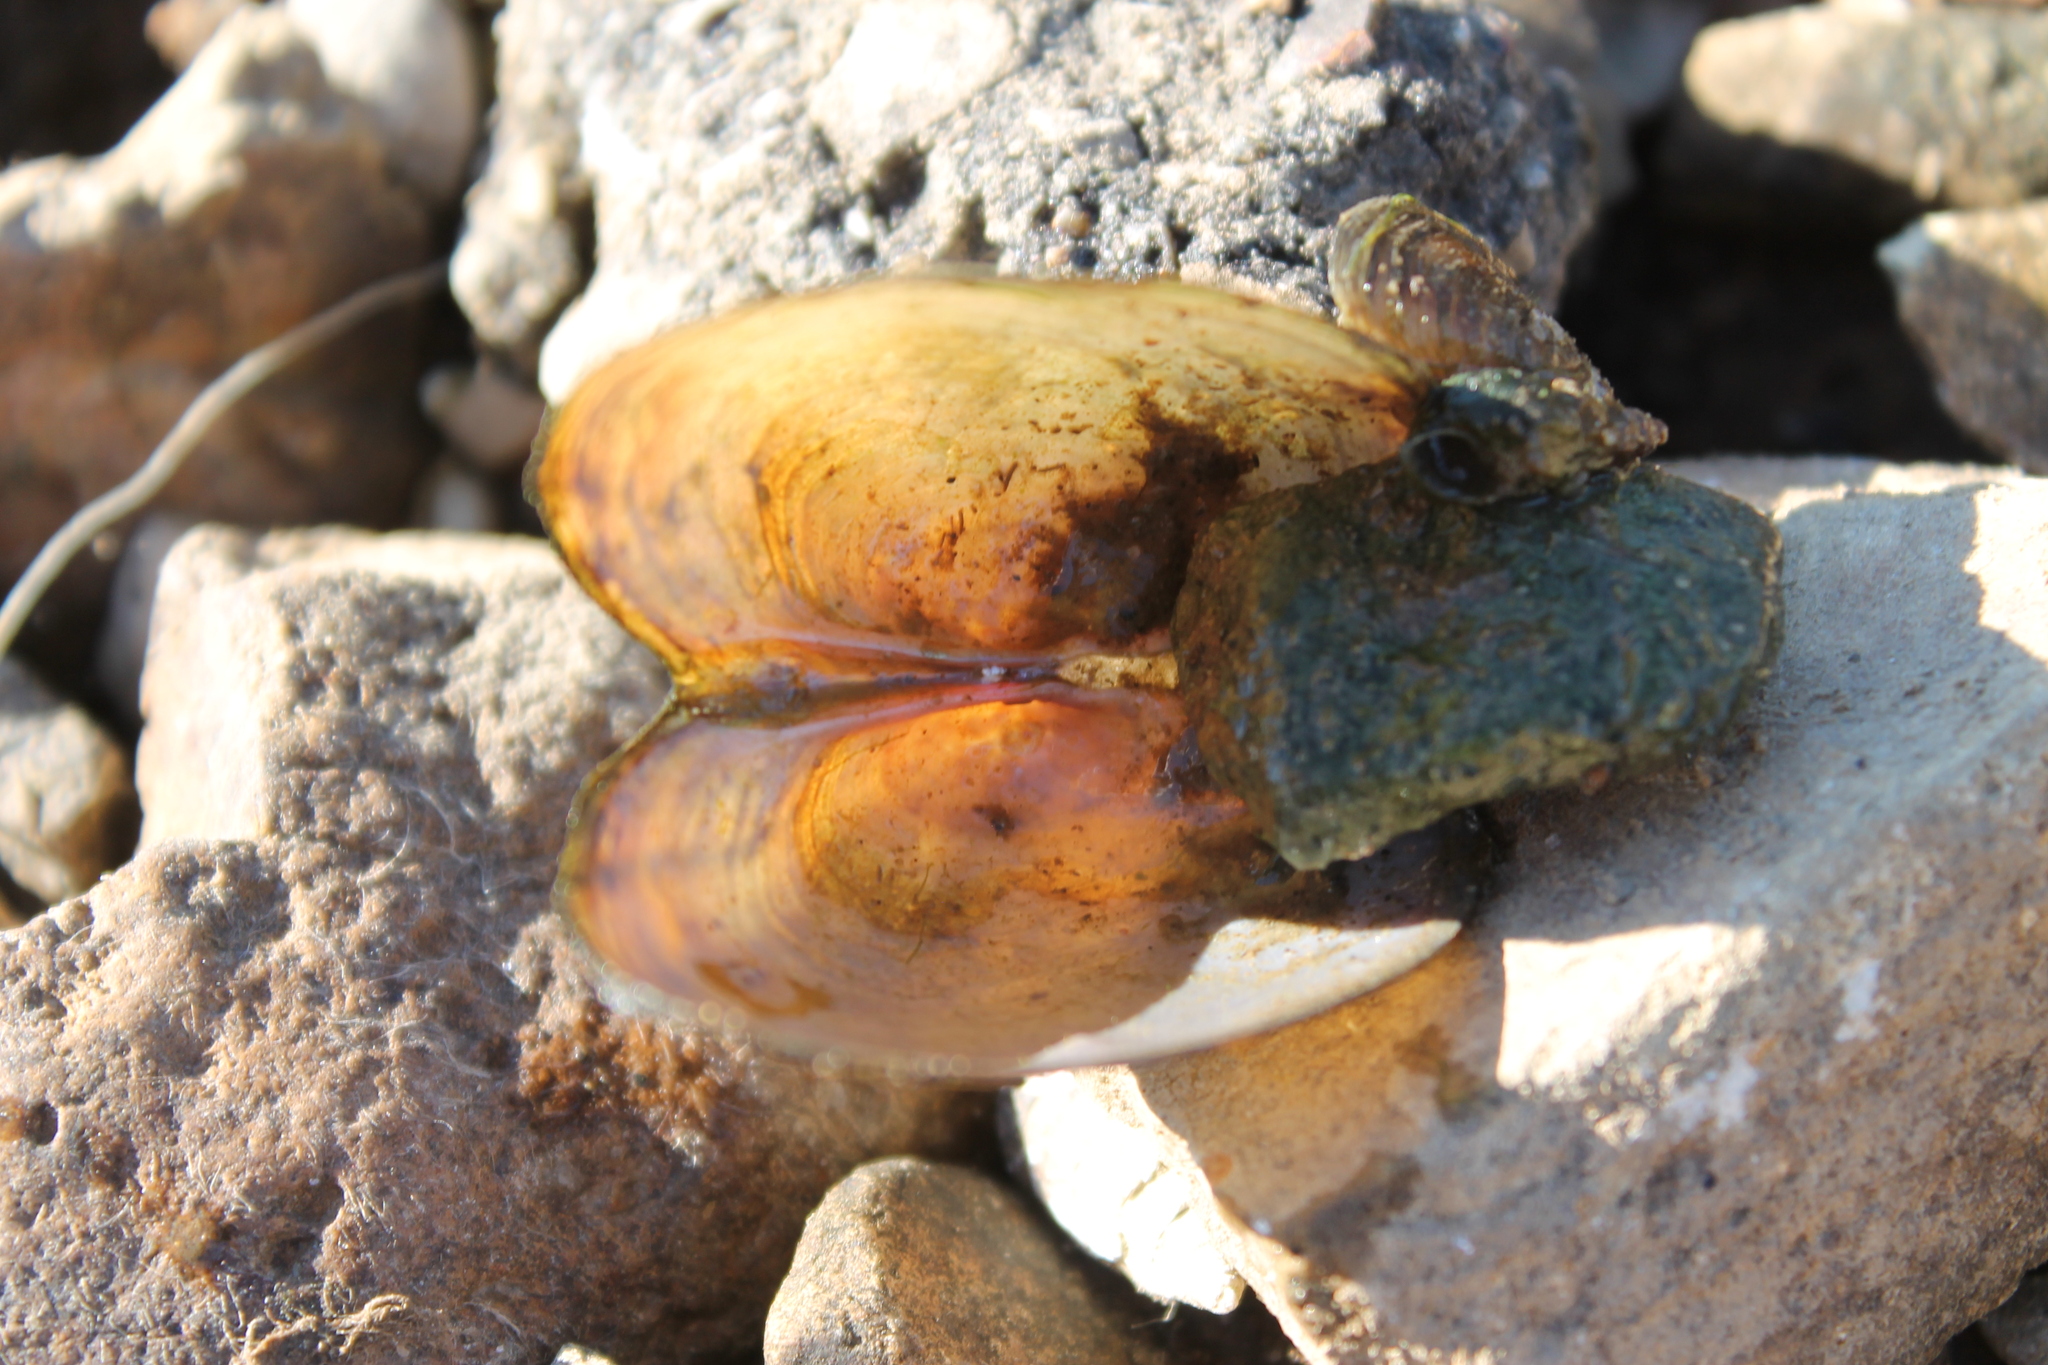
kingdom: Animalia
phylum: Mollusca
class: Bivalvia
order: Unionida
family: Unionidae
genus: Pyganodon
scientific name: Pyganodon grandis
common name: Giant floater
